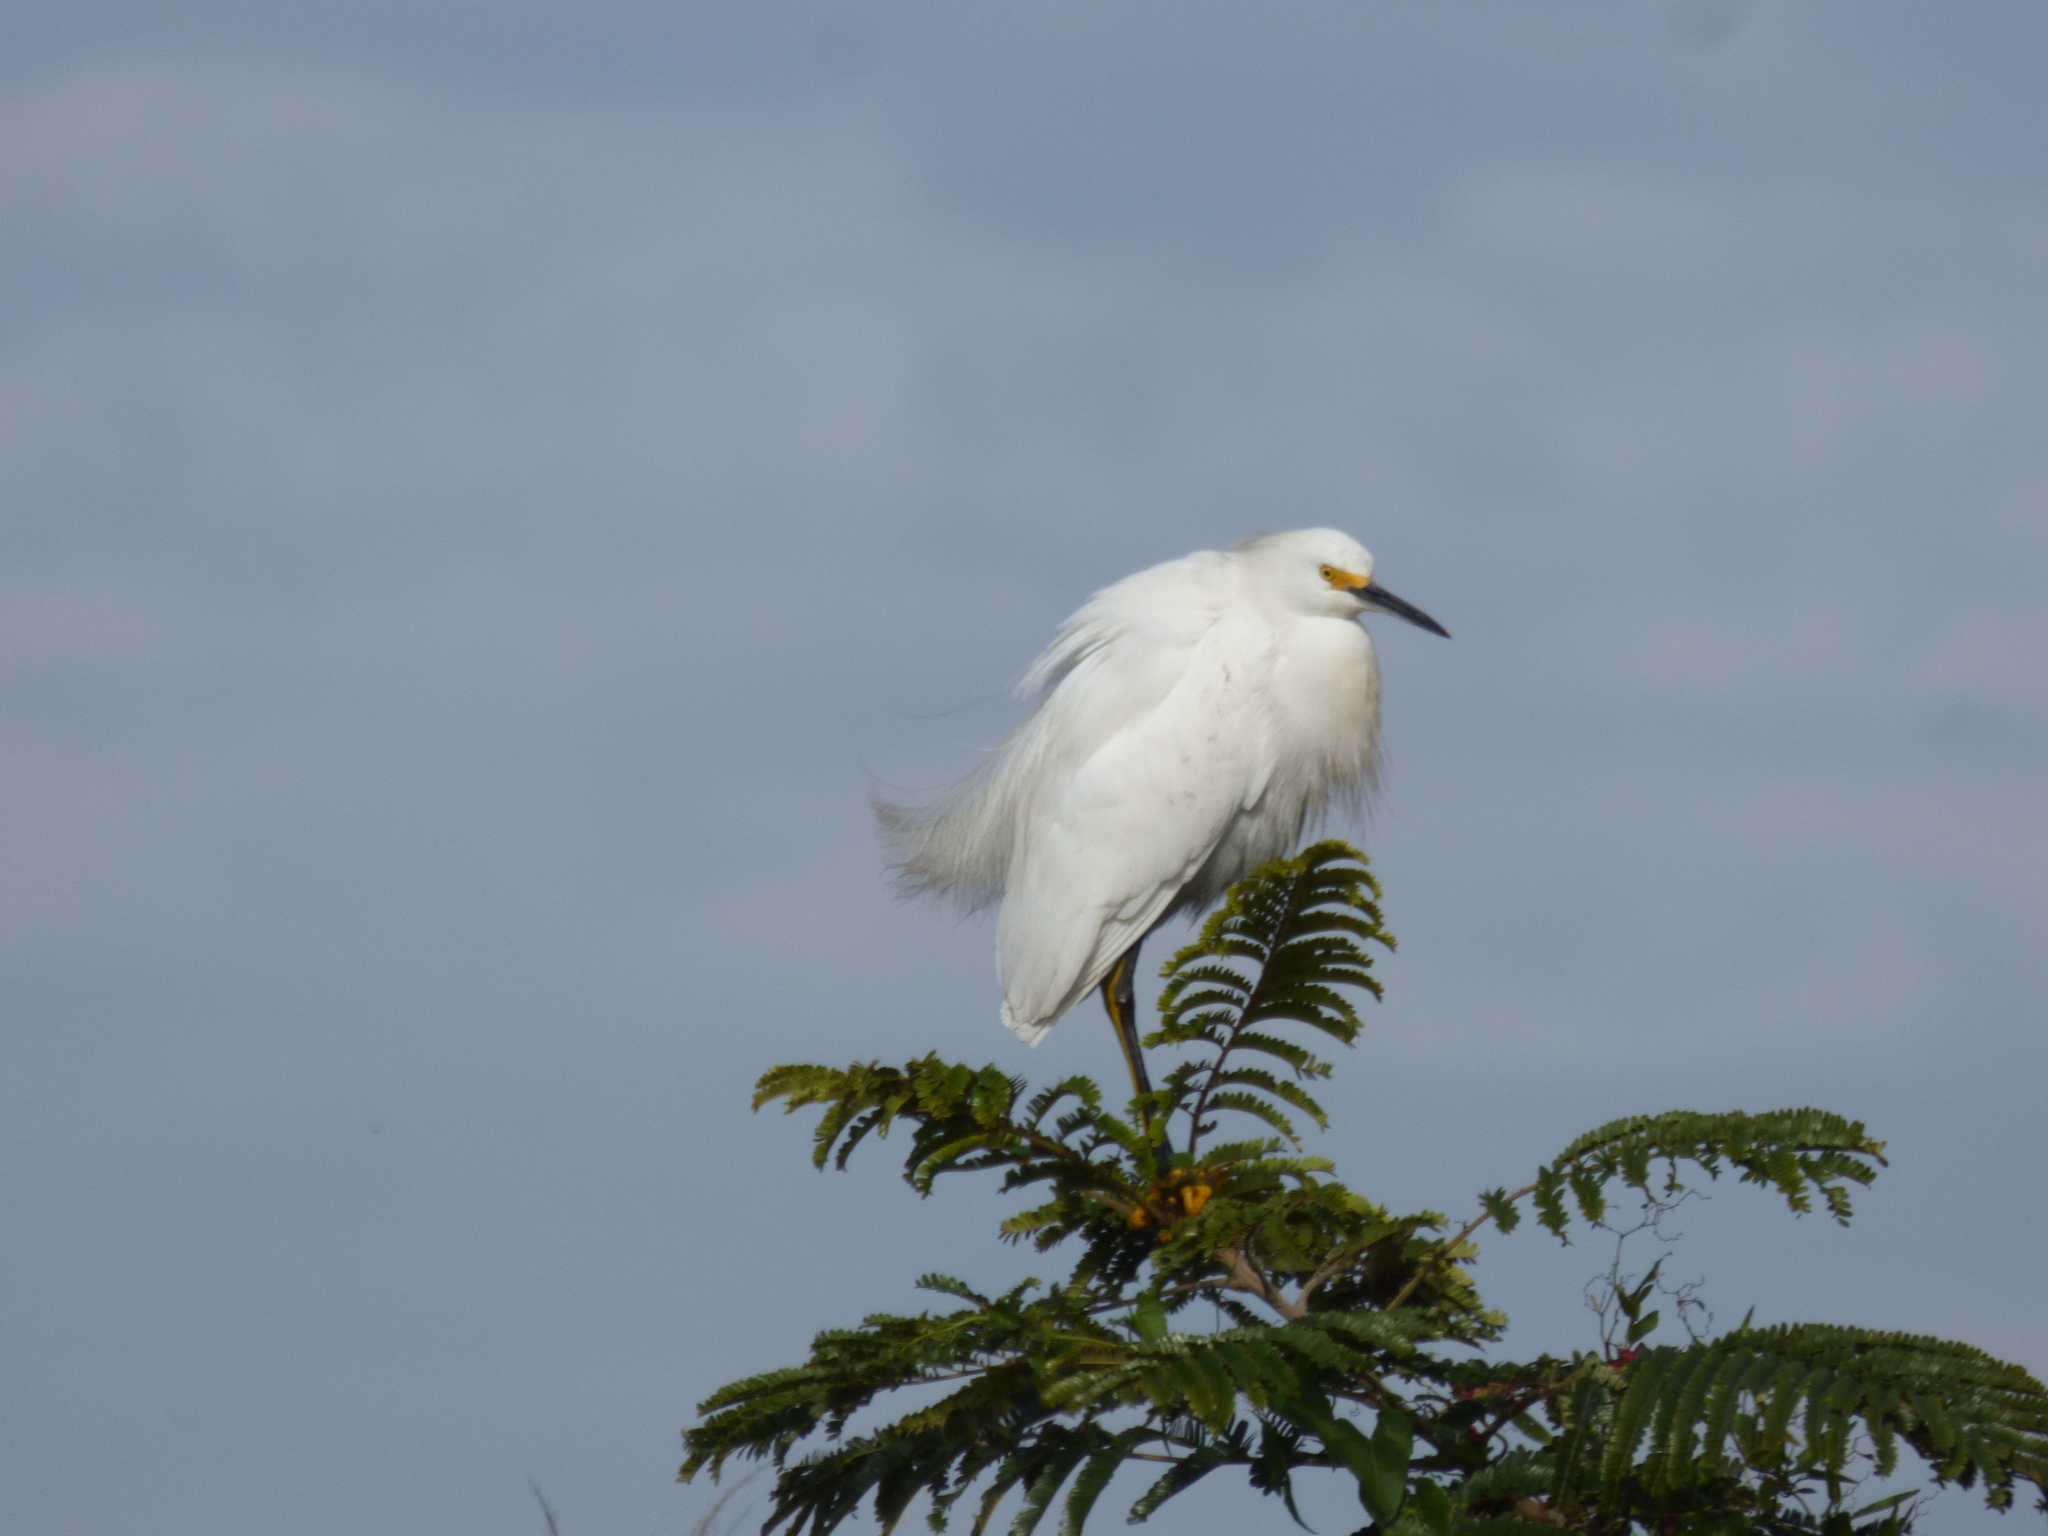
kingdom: Animalia
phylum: Chordata
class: Aves
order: Pelecaniformes
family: Ardeidae
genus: Egretta
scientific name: Egretta thula
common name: Snowy egret
